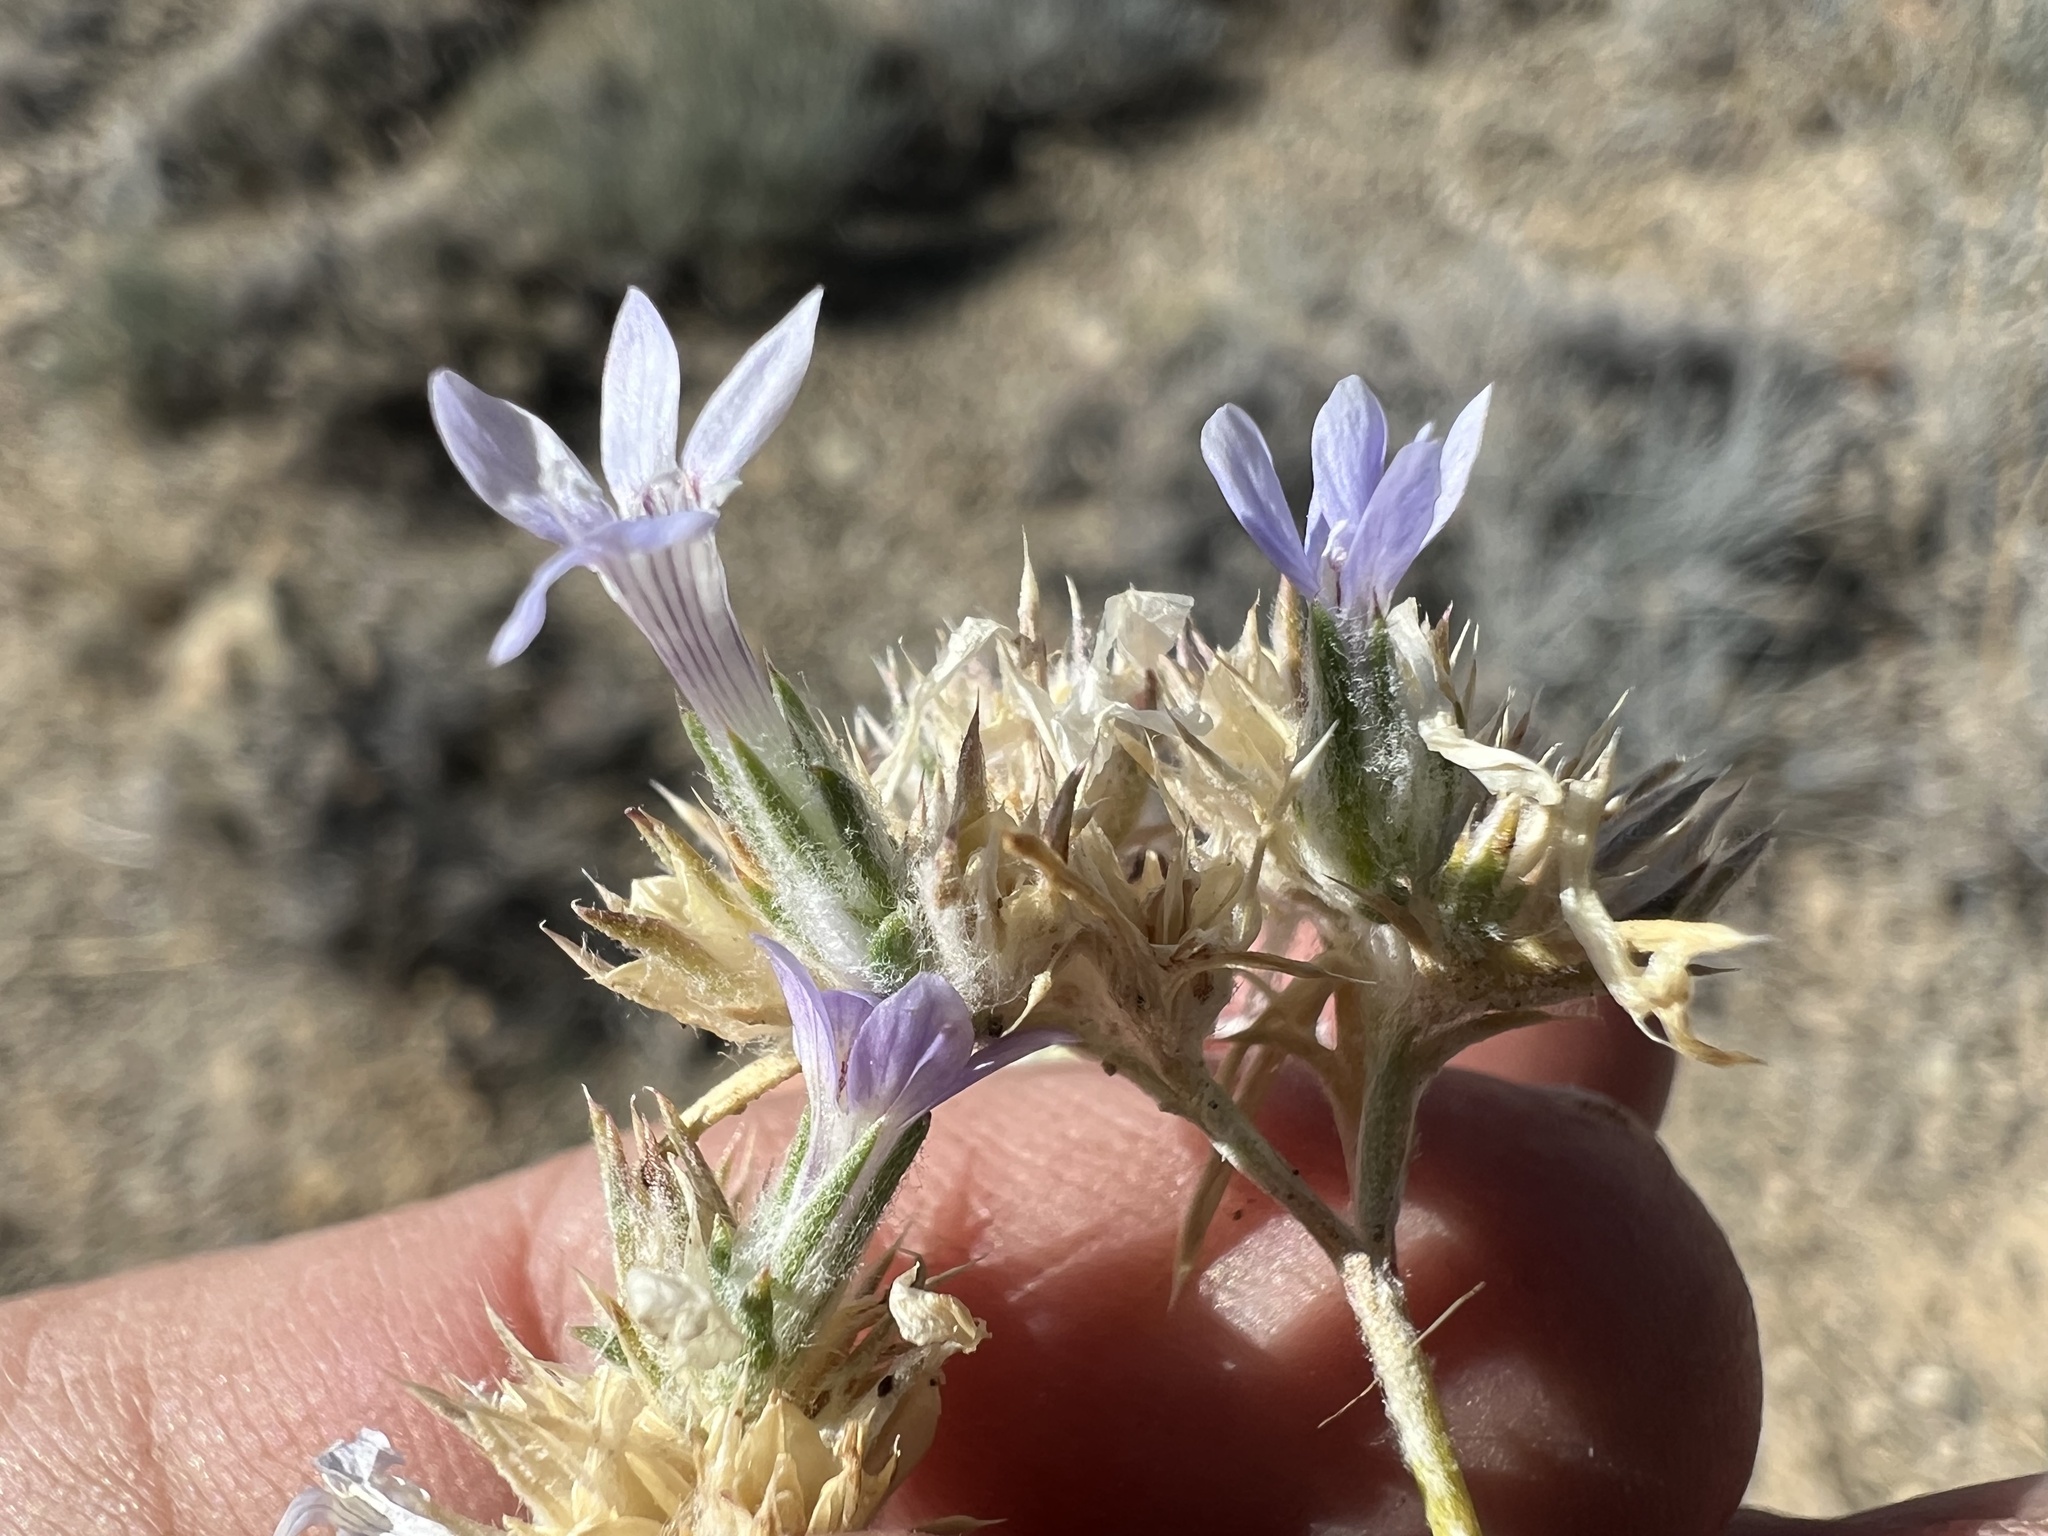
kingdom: Plantae
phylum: Tracheophyta
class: Magnoliopsida
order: Ericales
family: Polemoniaceae
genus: Eriastrum
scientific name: Eriastrum wilcoxii
